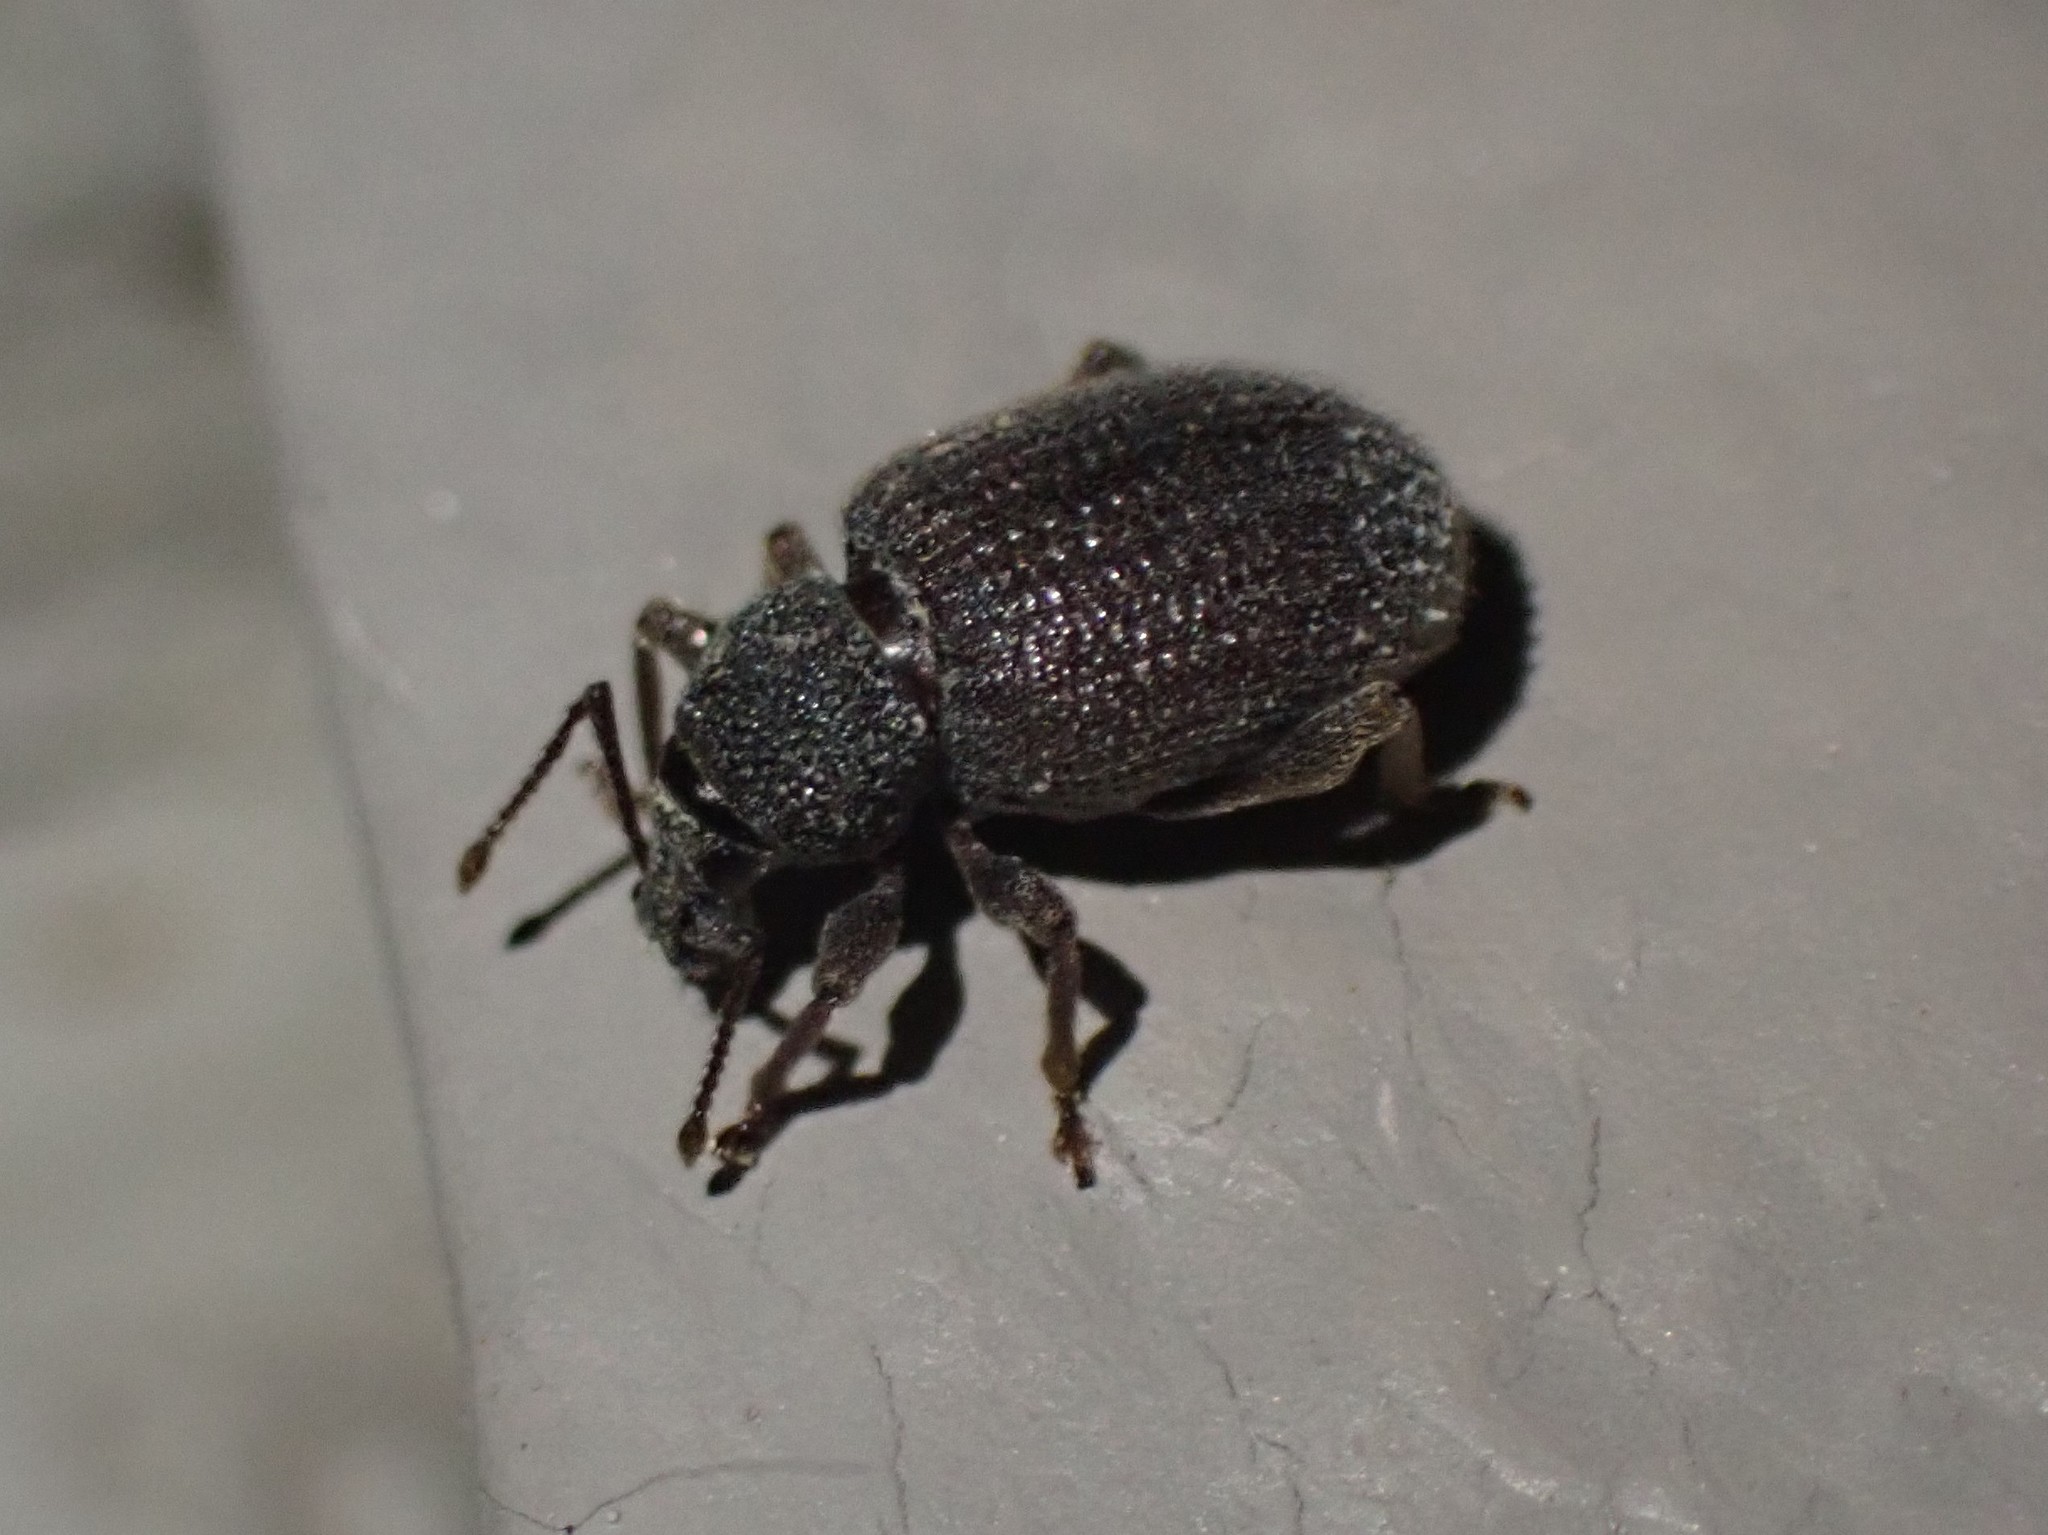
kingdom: Animalia
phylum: Arthropoda
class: Insecta
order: Coleoptera
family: Curculionidae
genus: Otiorhynchus
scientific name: Otiorhynchus rugosostriatus
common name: Weevil
